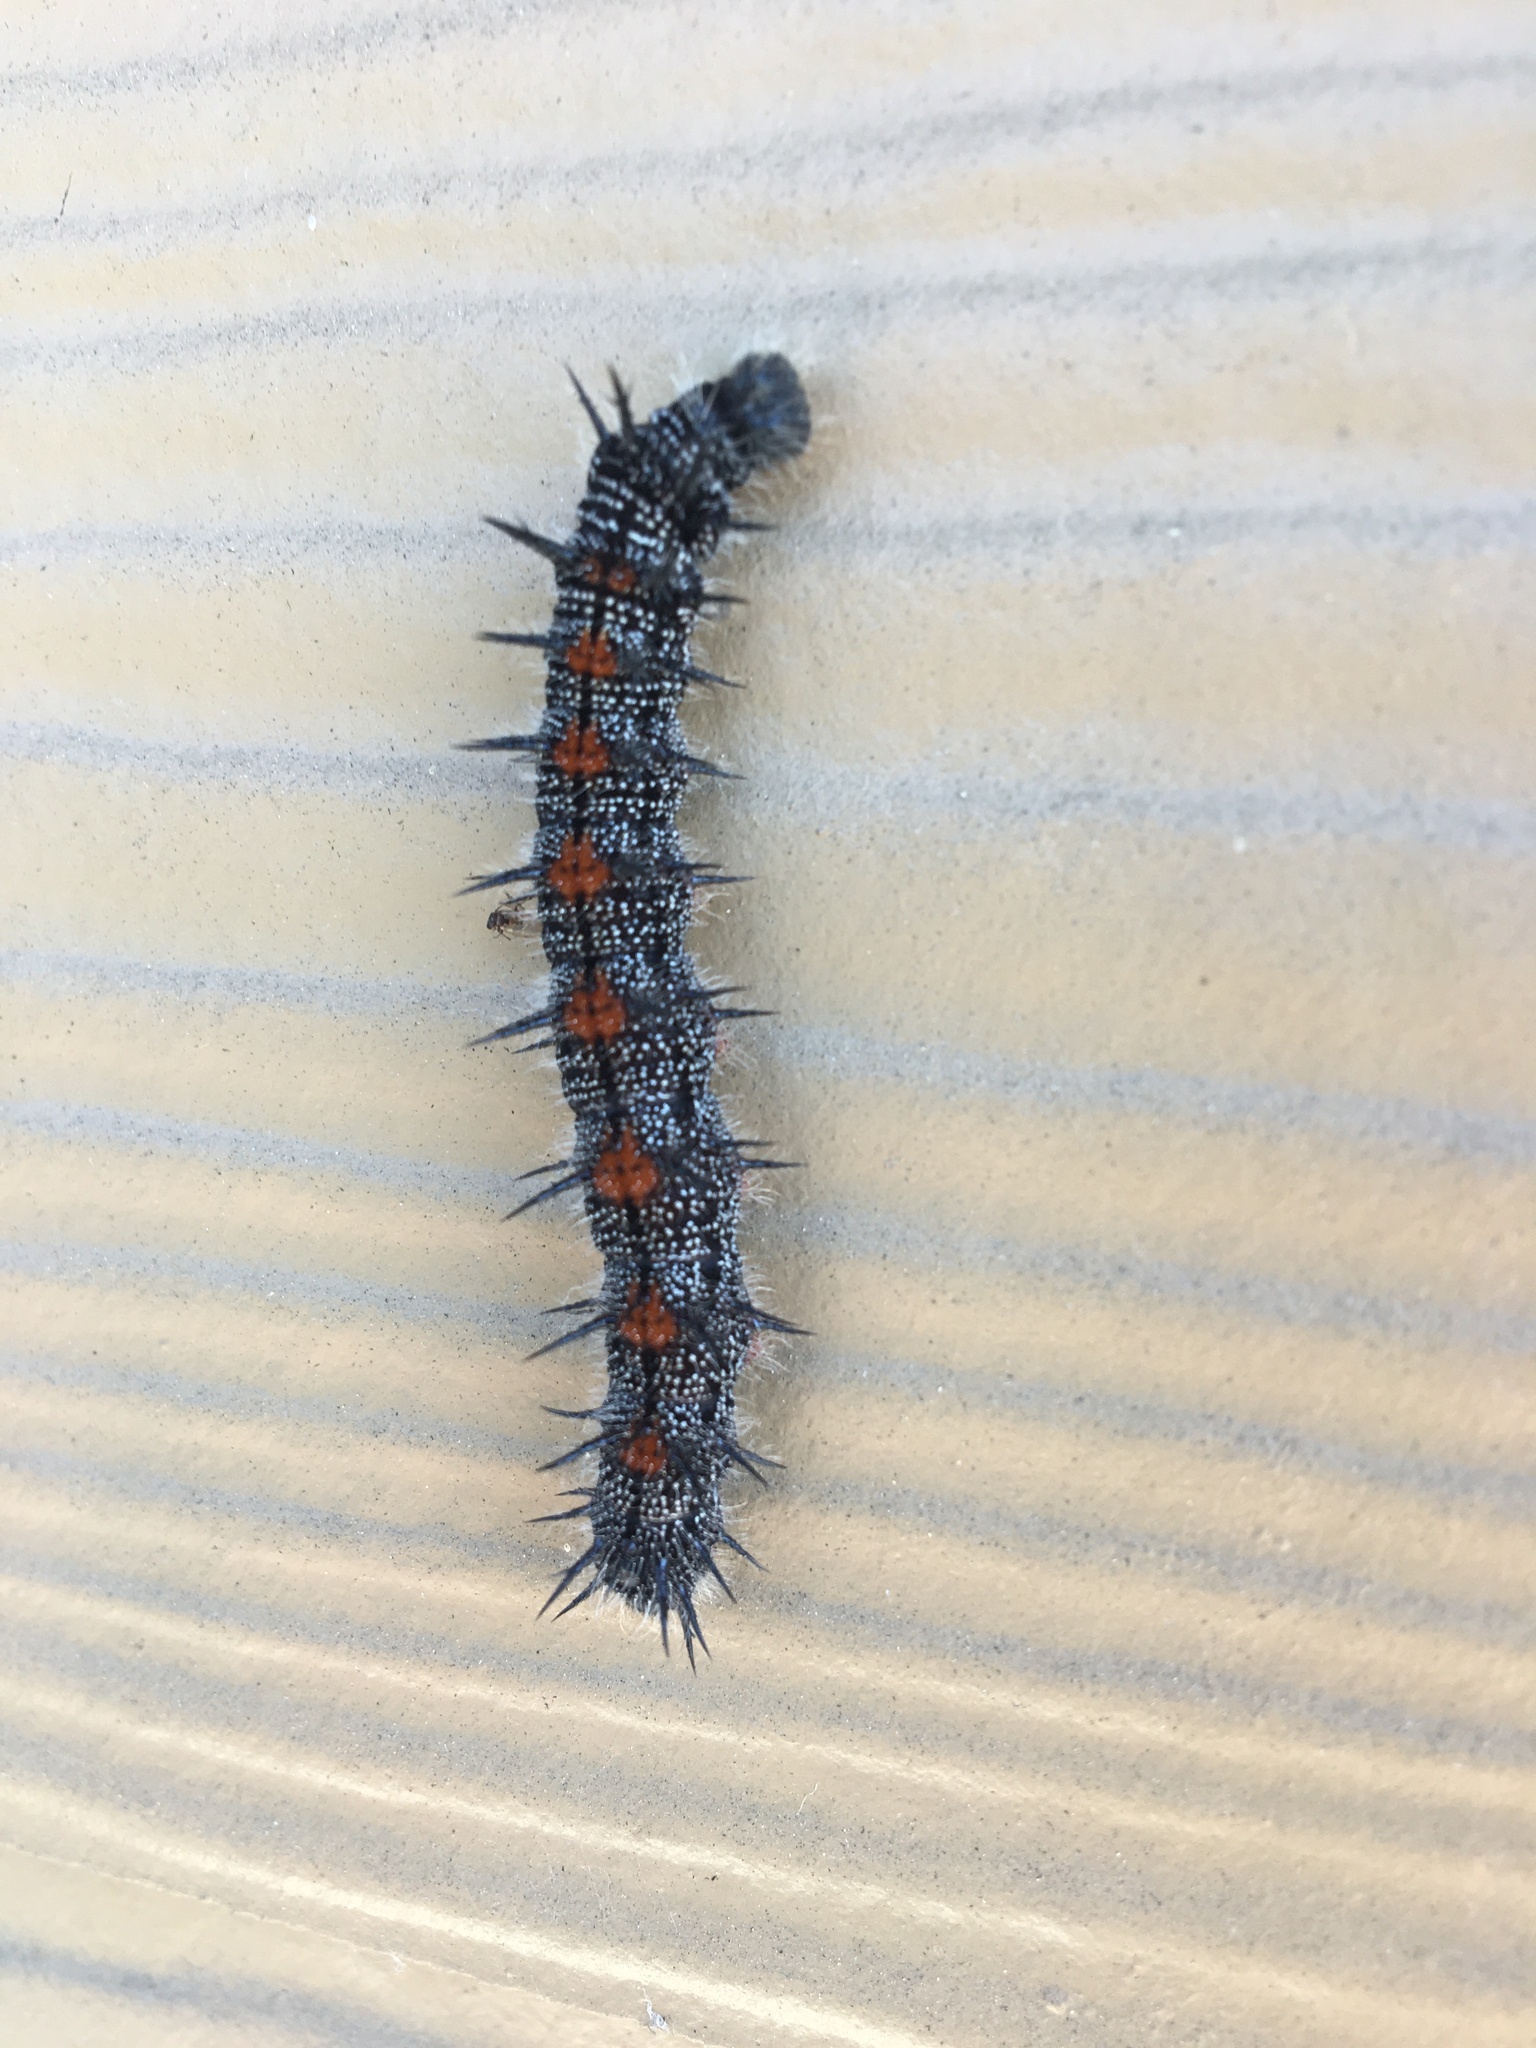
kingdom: Animalia
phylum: Arthropoda
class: Insecta
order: Lepidoptera
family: Nymphalidae
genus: Nymphalis
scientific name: Nymphalis antiopa
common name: Camberwell beauty
